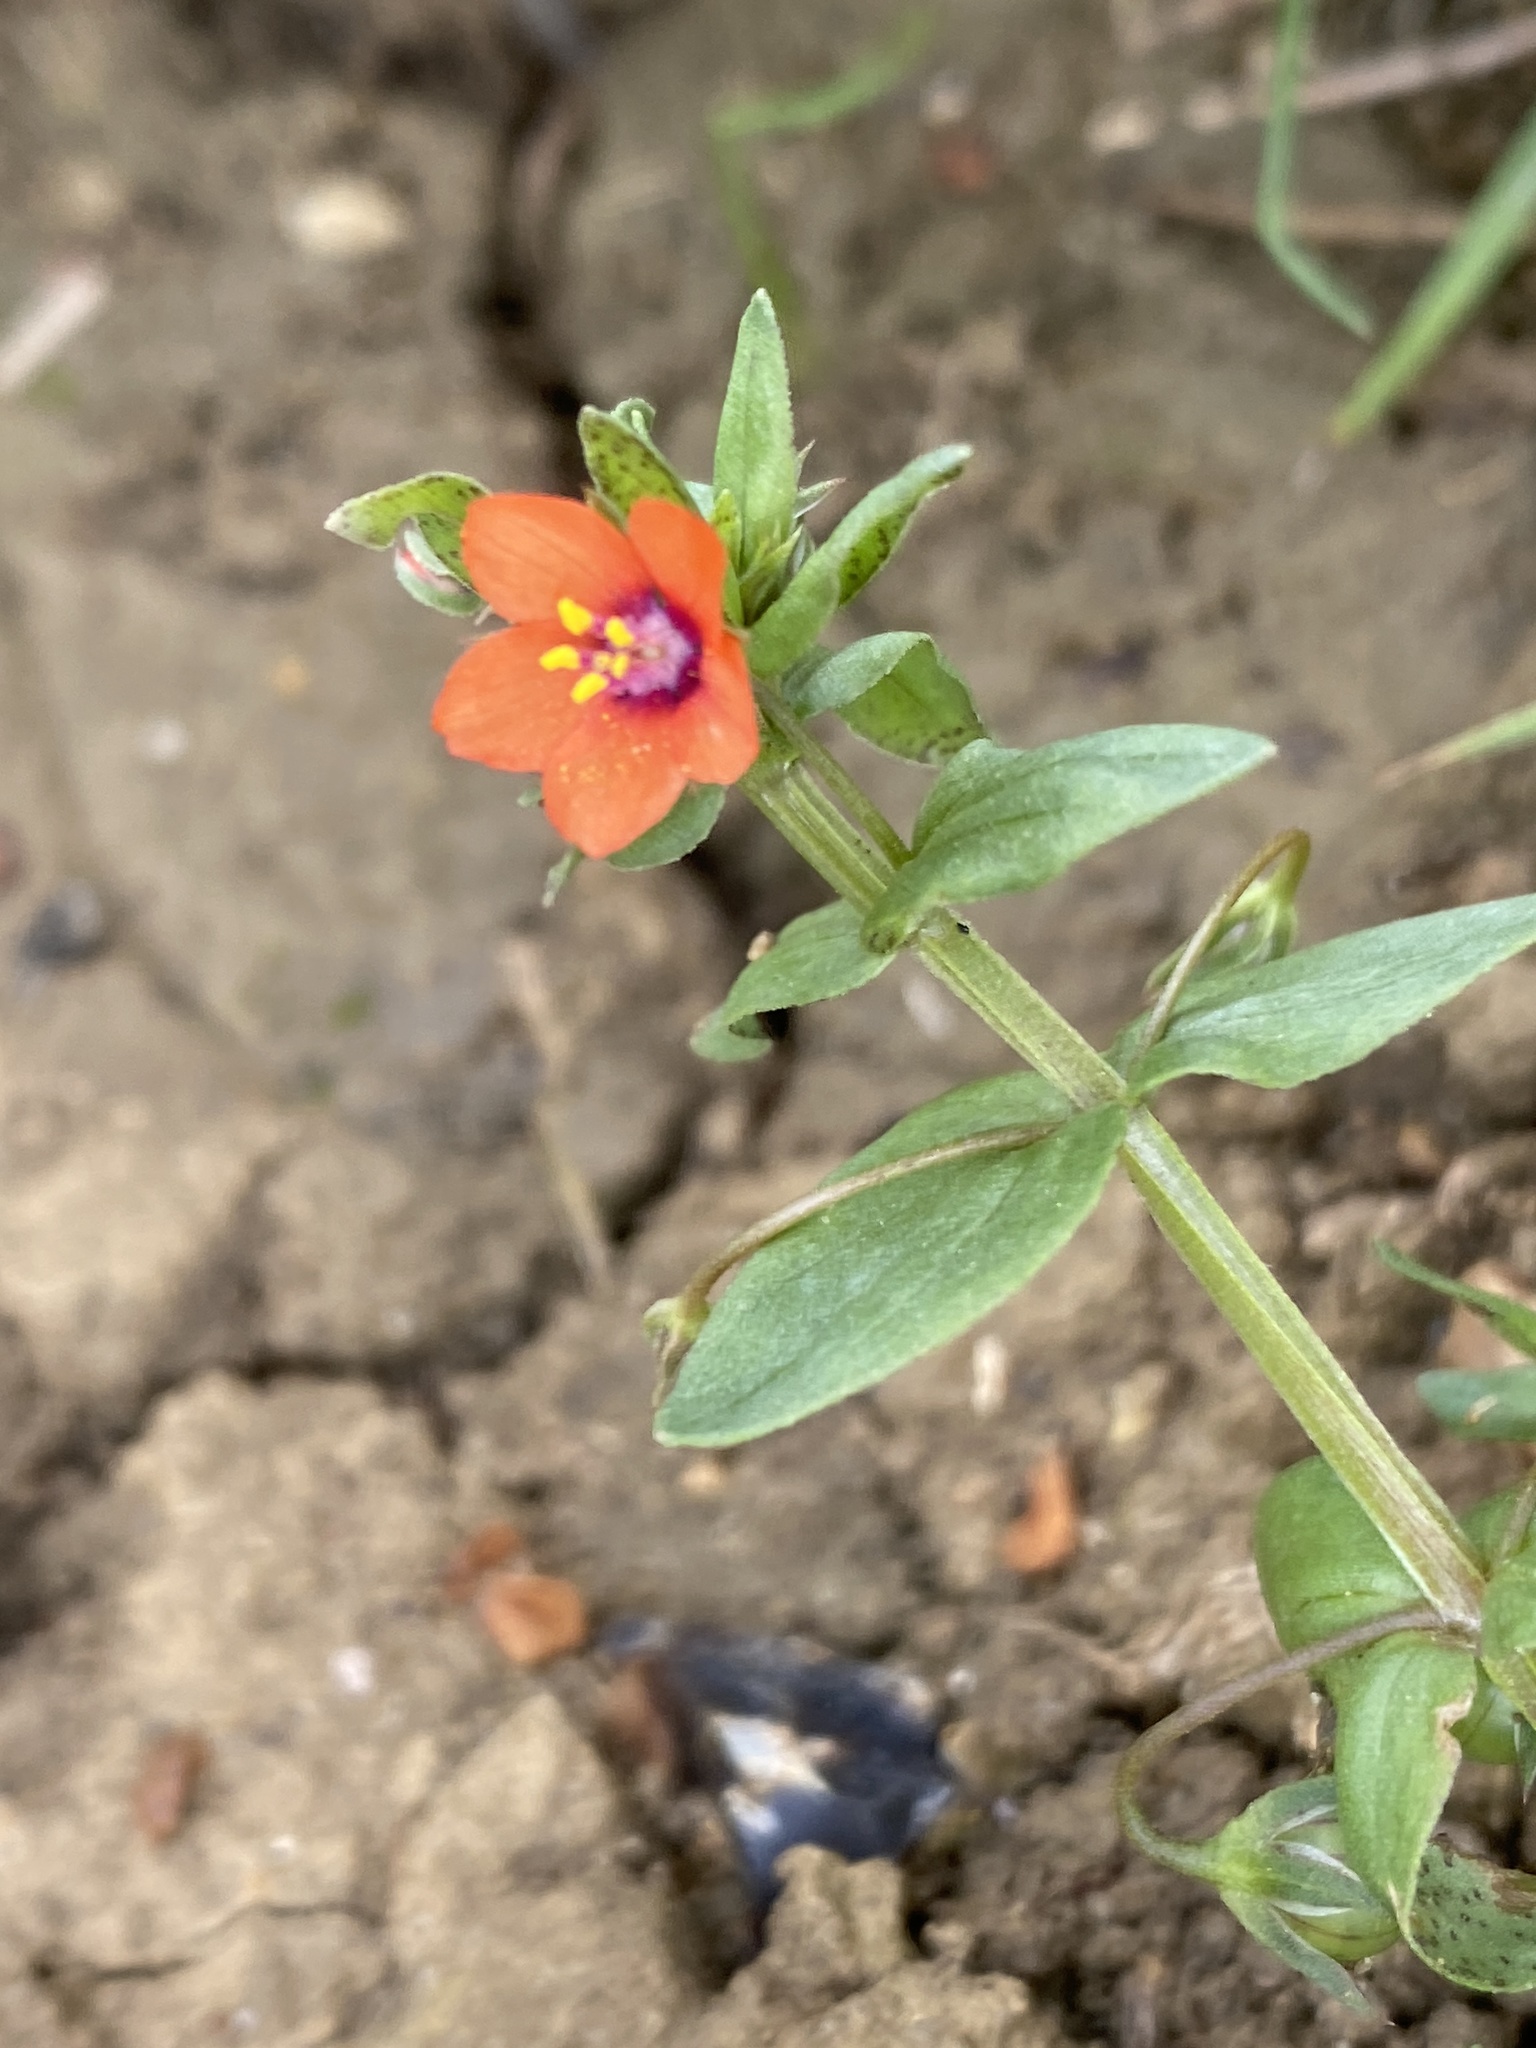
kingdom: Plantae
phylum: Tracheophyta
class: Magnoliopsida
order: Ericales
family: Primulaceae
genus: Lysimachia
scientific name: Lysimachia arvensis
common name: Scarlet pimpernel
